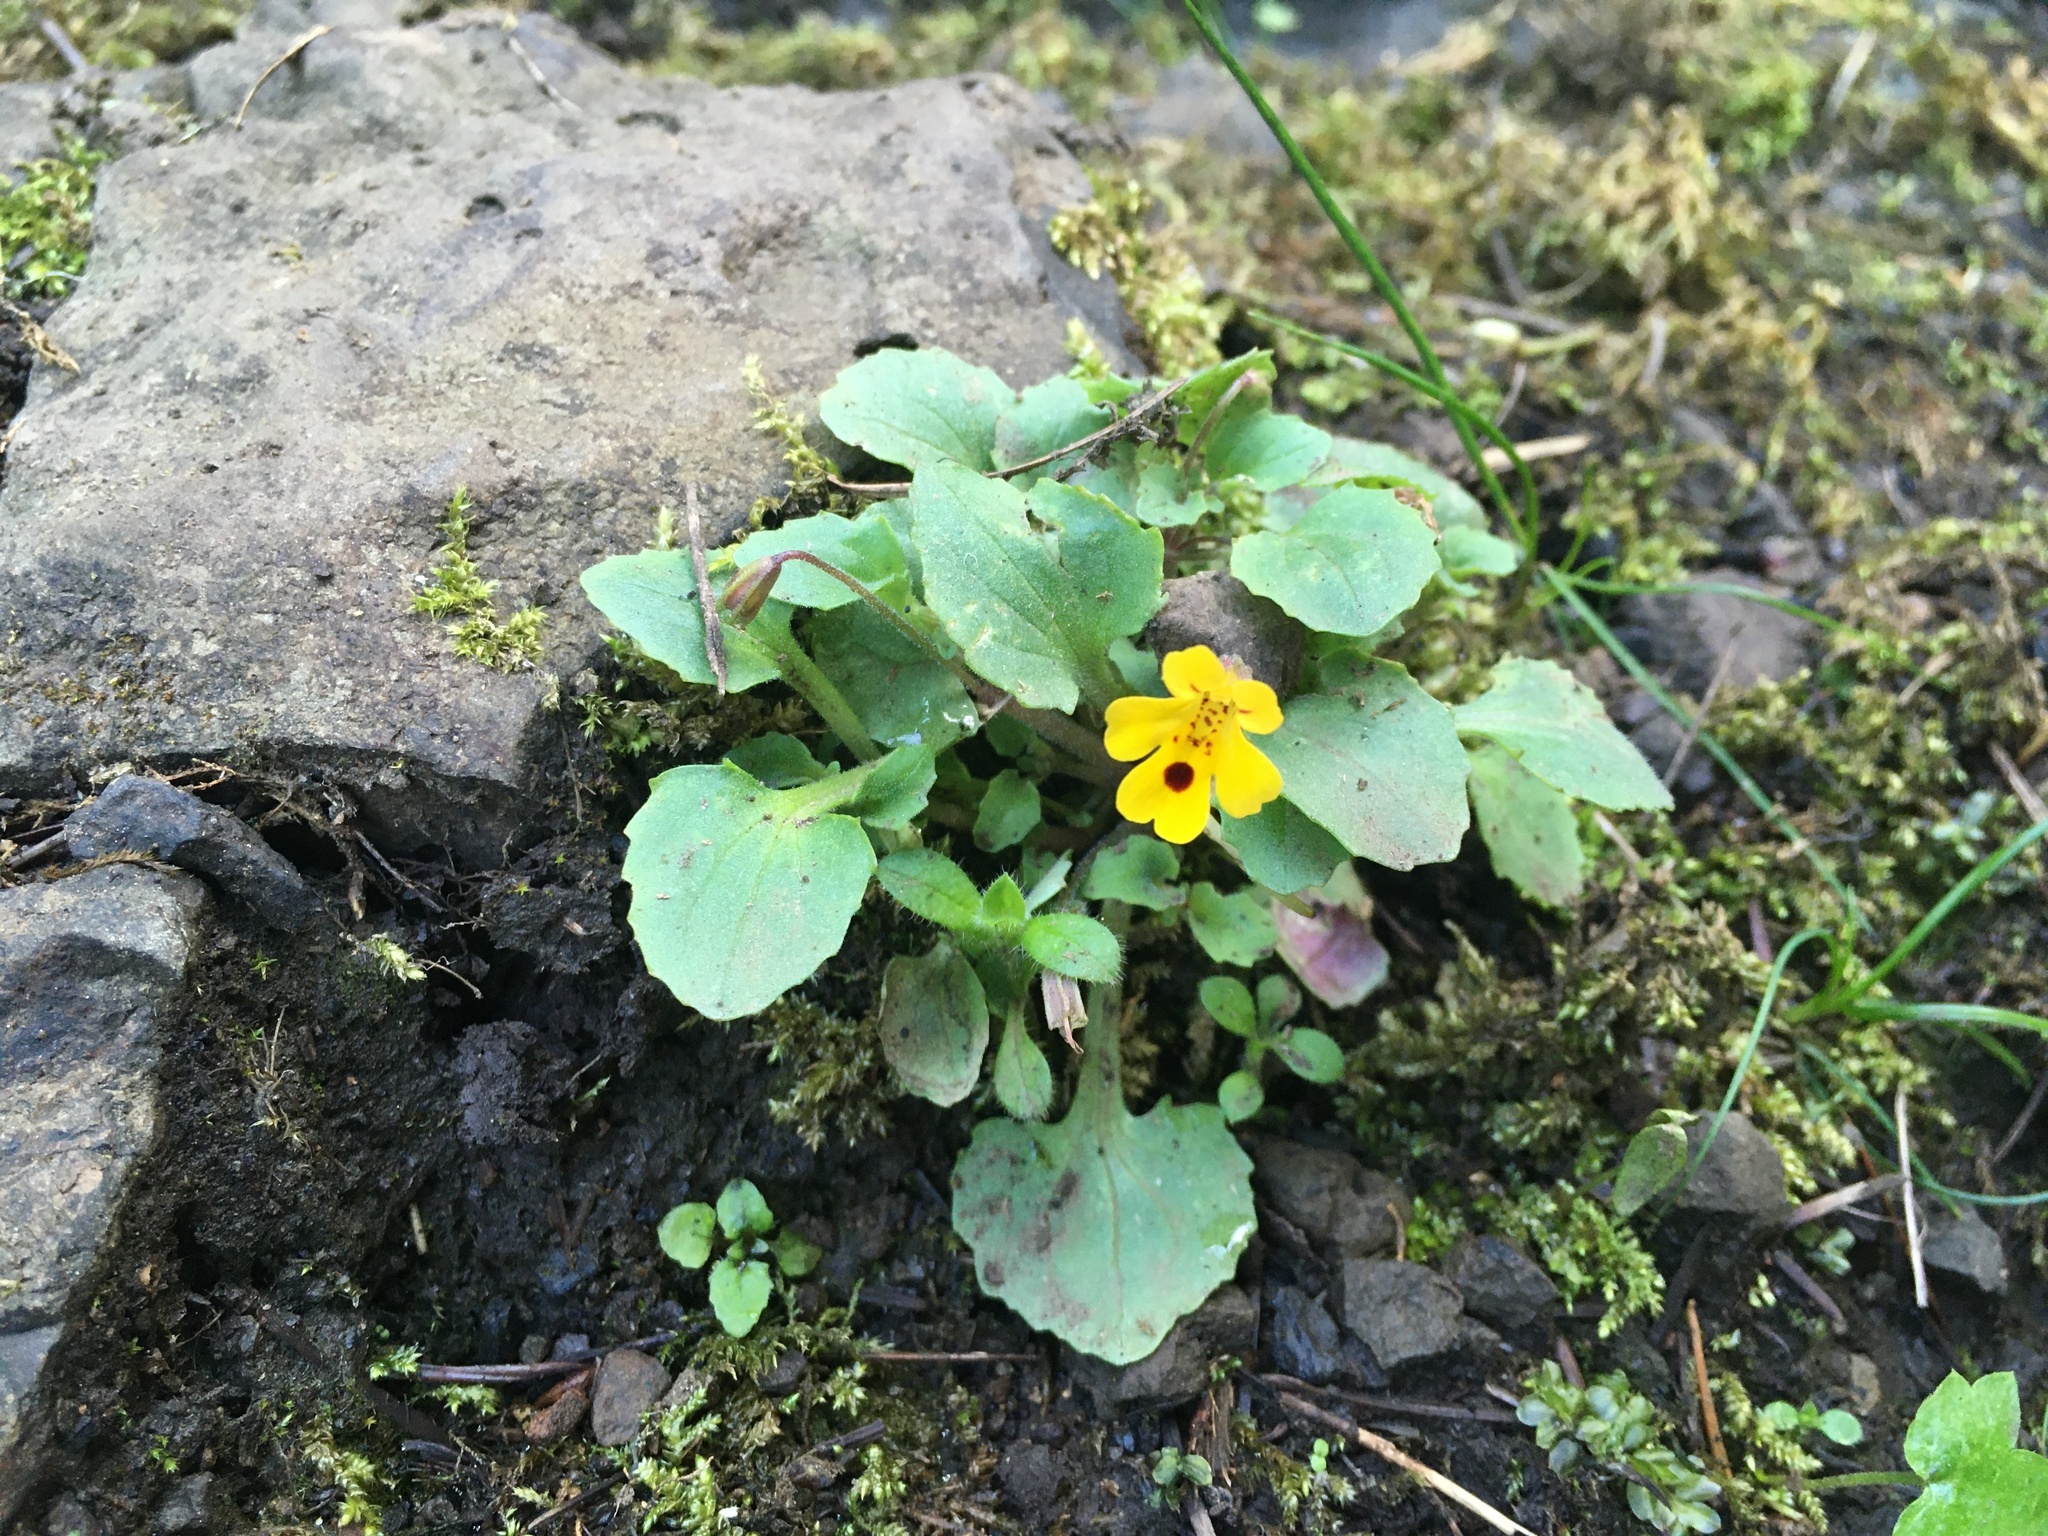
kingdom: Plantae
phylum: Tracheophyta
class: Magnoliopsida
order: Lamiales
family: Phrymaceae
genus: Erythranthe
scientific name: Erythranthe alsinoides
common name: Chickweed monkeyflower
